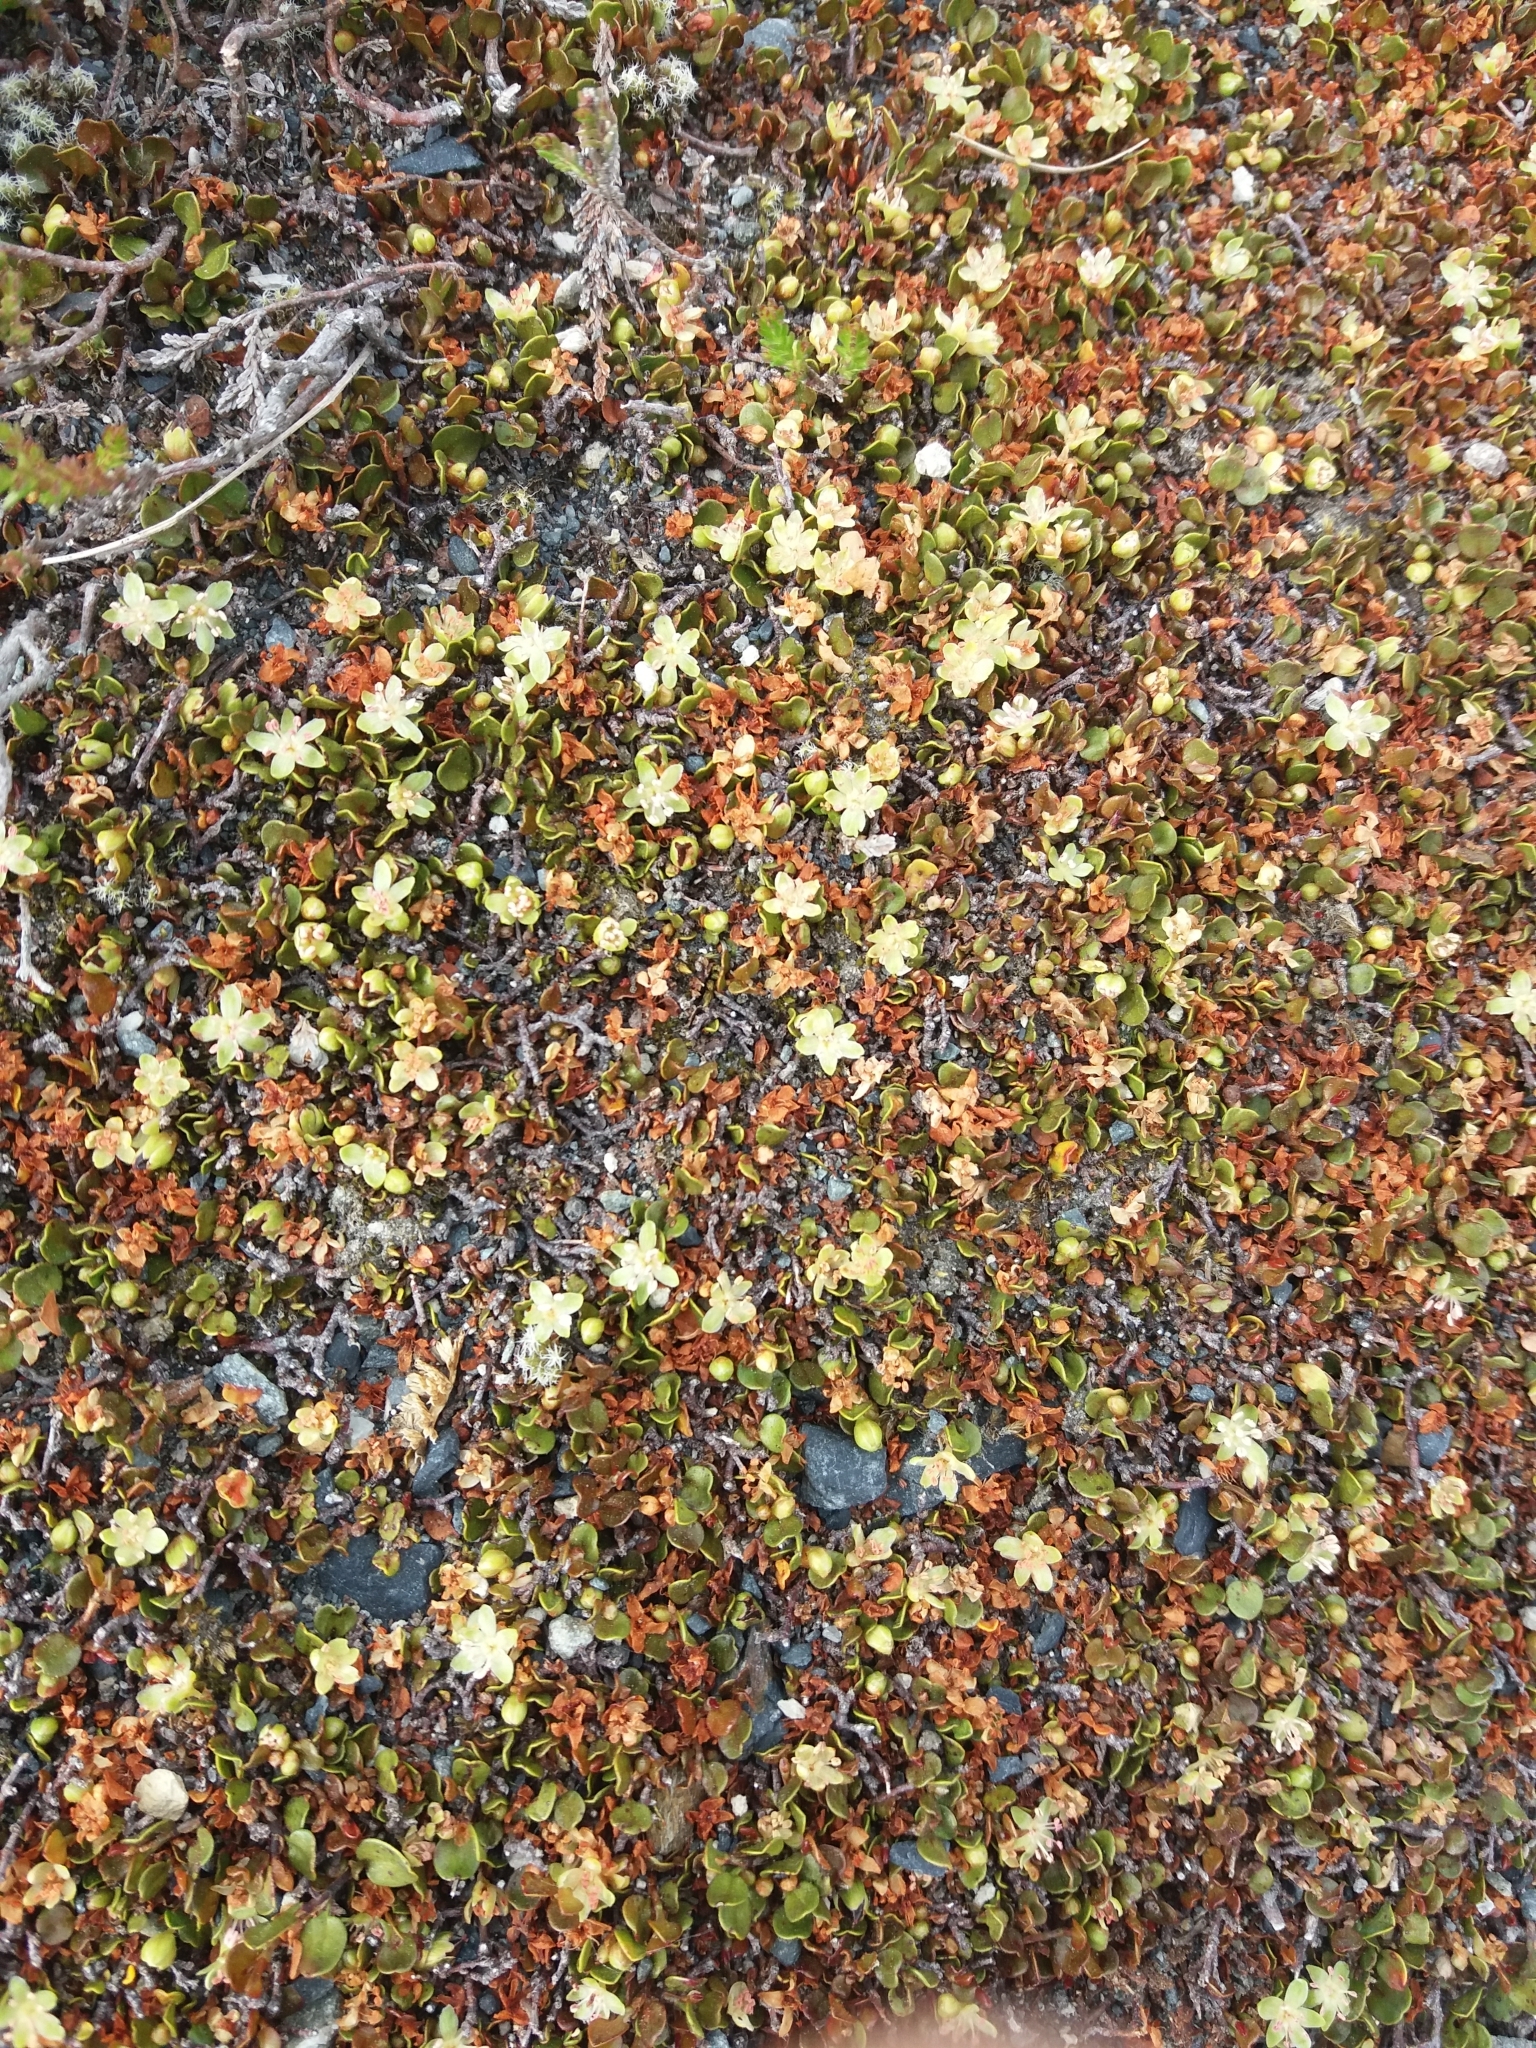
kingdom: Plantae
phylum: Tracheophyta
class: Magnoliopsida
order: Caryophyllales
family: Polygonaceae
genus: Muehlenbeckia
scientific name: Muehlenbeckia axillaris
